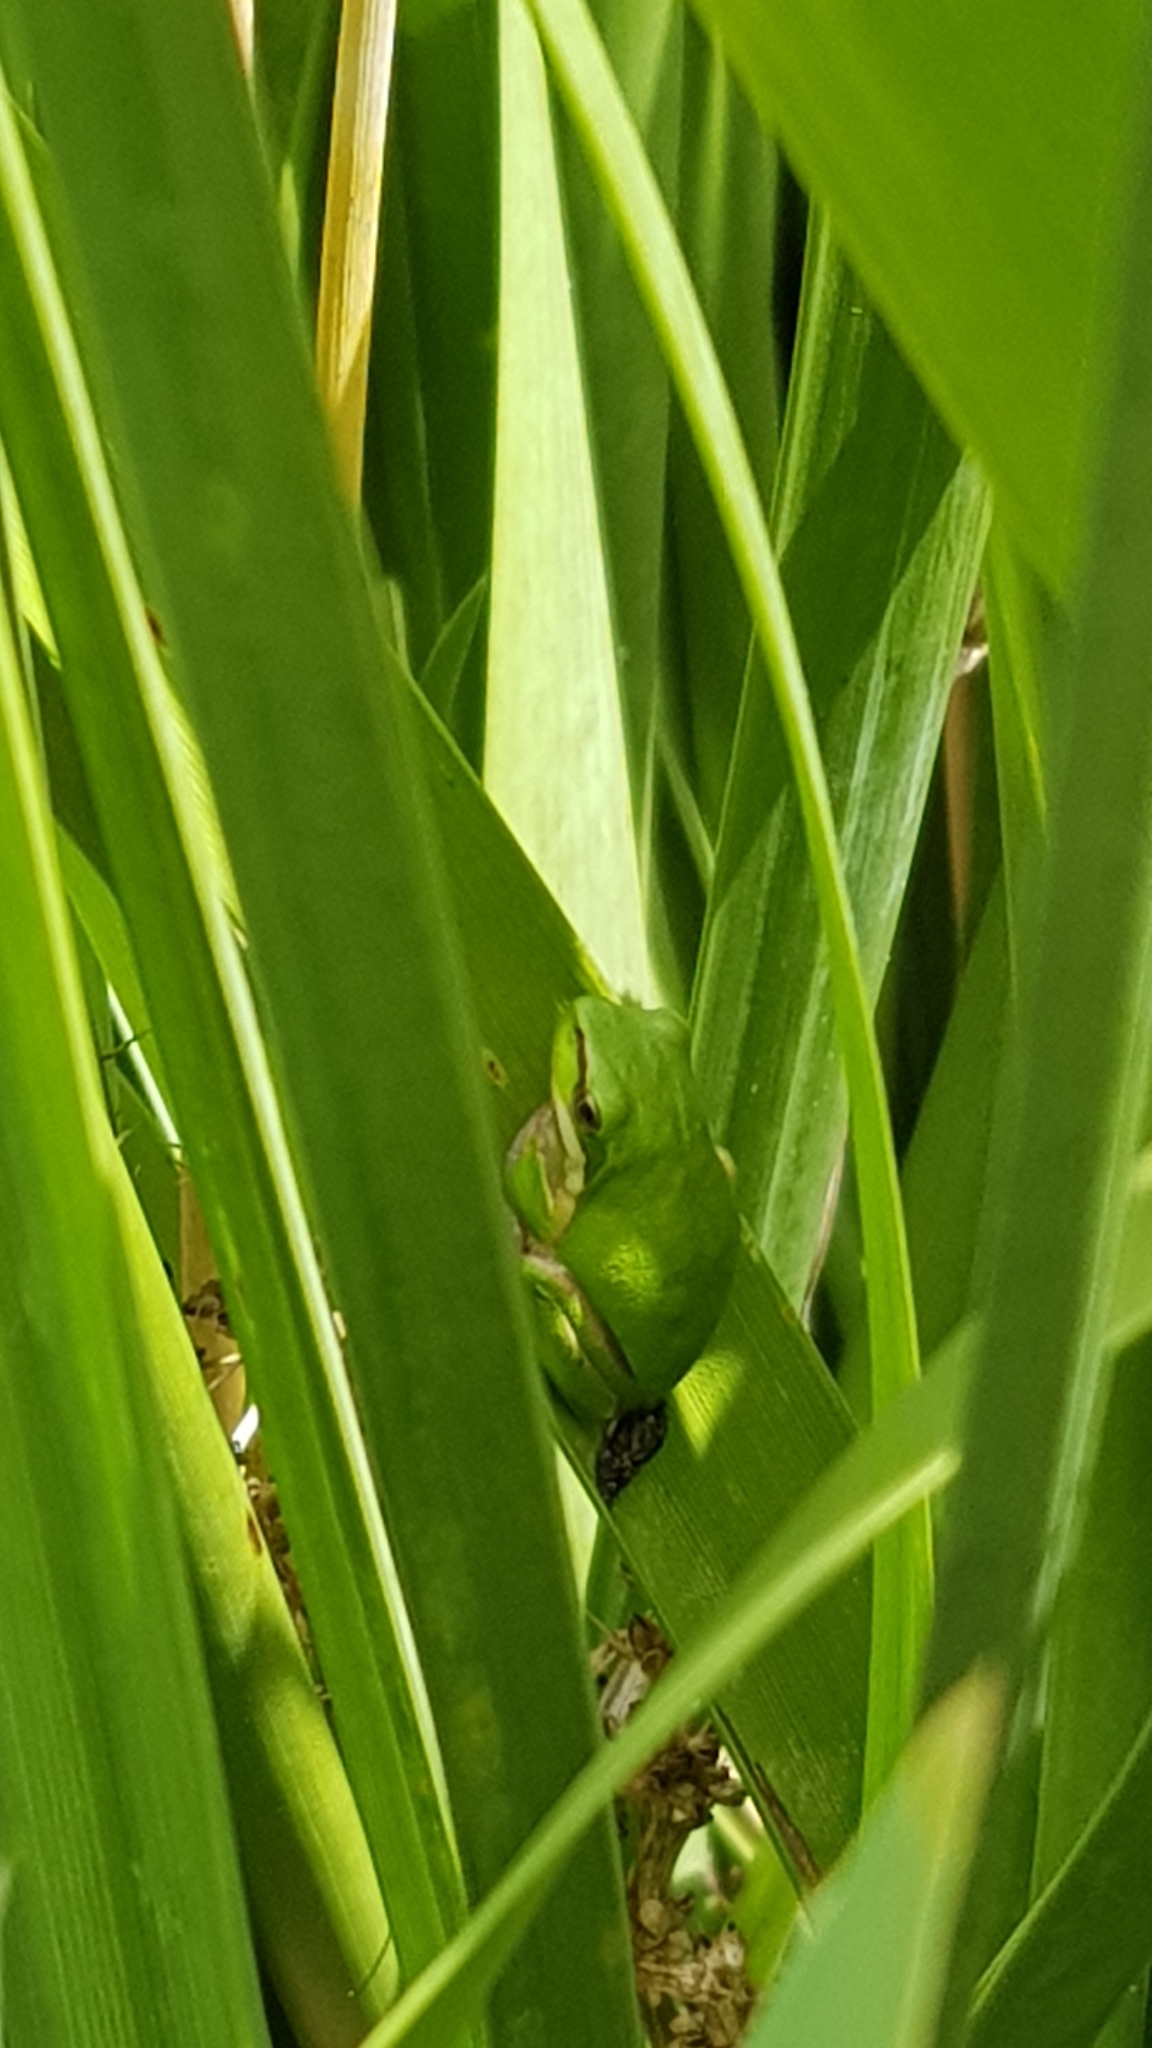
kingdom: Animalia
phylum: Chordata
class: Amphibia
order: Anura
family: Pelodryadidae
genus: Litoria
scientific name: Litoria fallax
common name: Eastern dwarf treefrog
